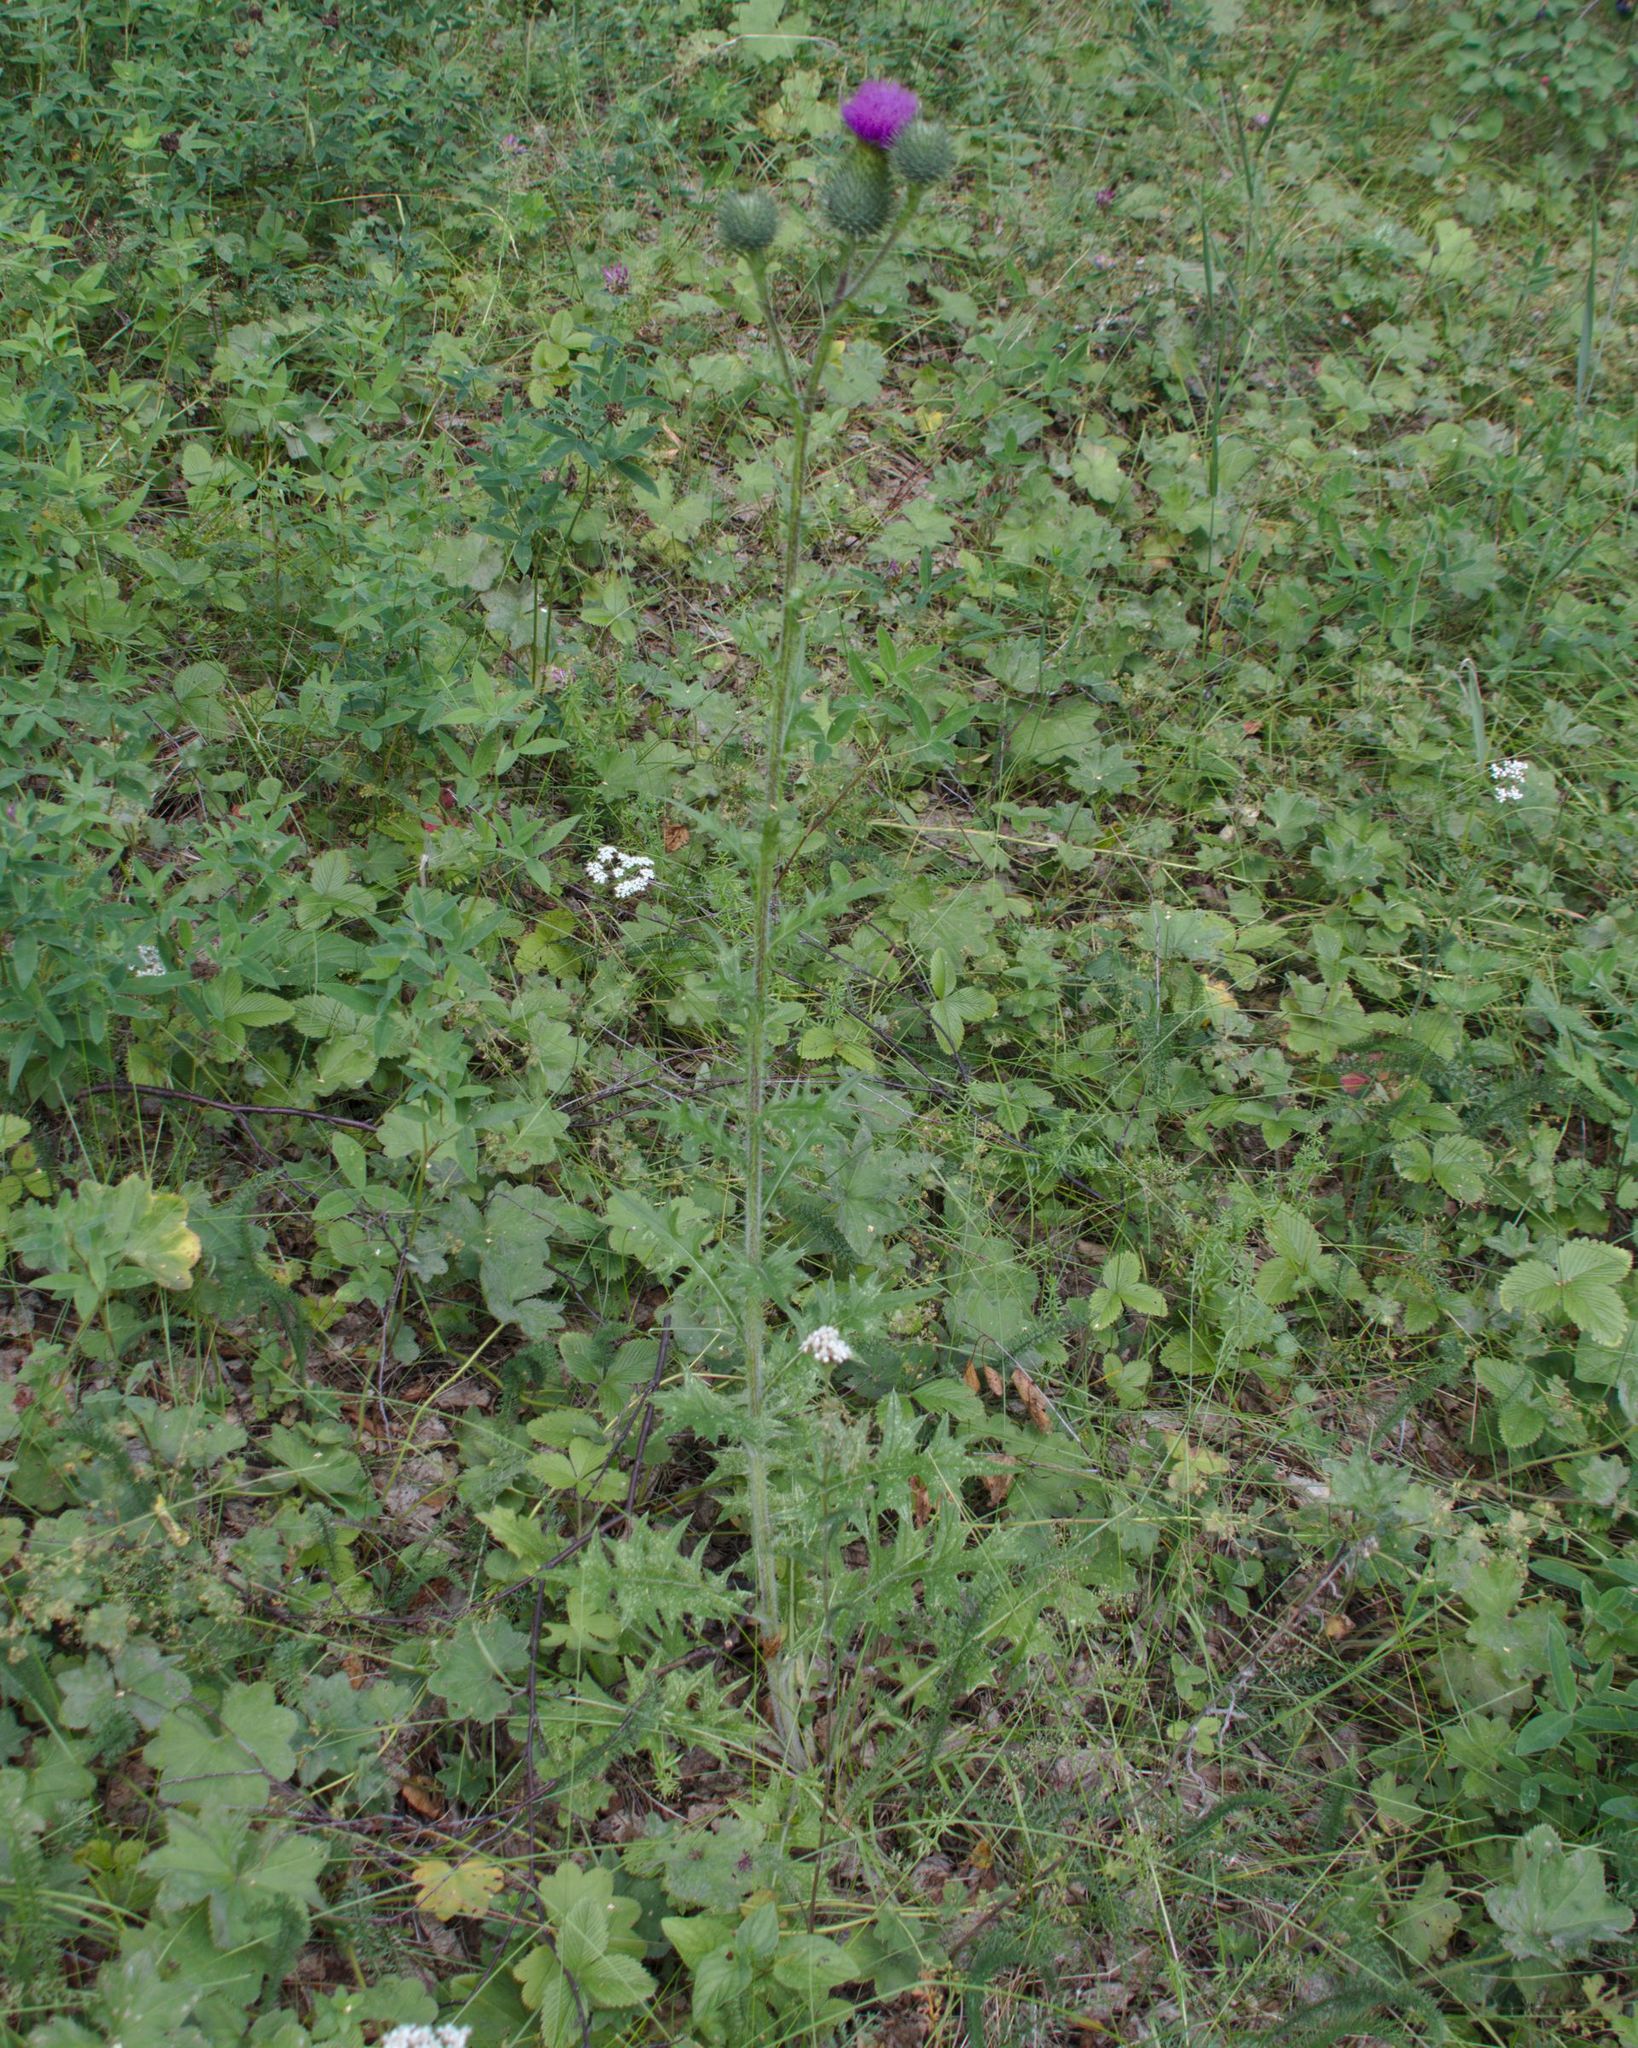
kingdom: Plantae
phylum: Tracheophyta
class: Magnoliopsida
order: Asterales
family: Asteraceae
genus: Cirsium
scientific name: Cirsium vulgare
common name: Bull thistle
